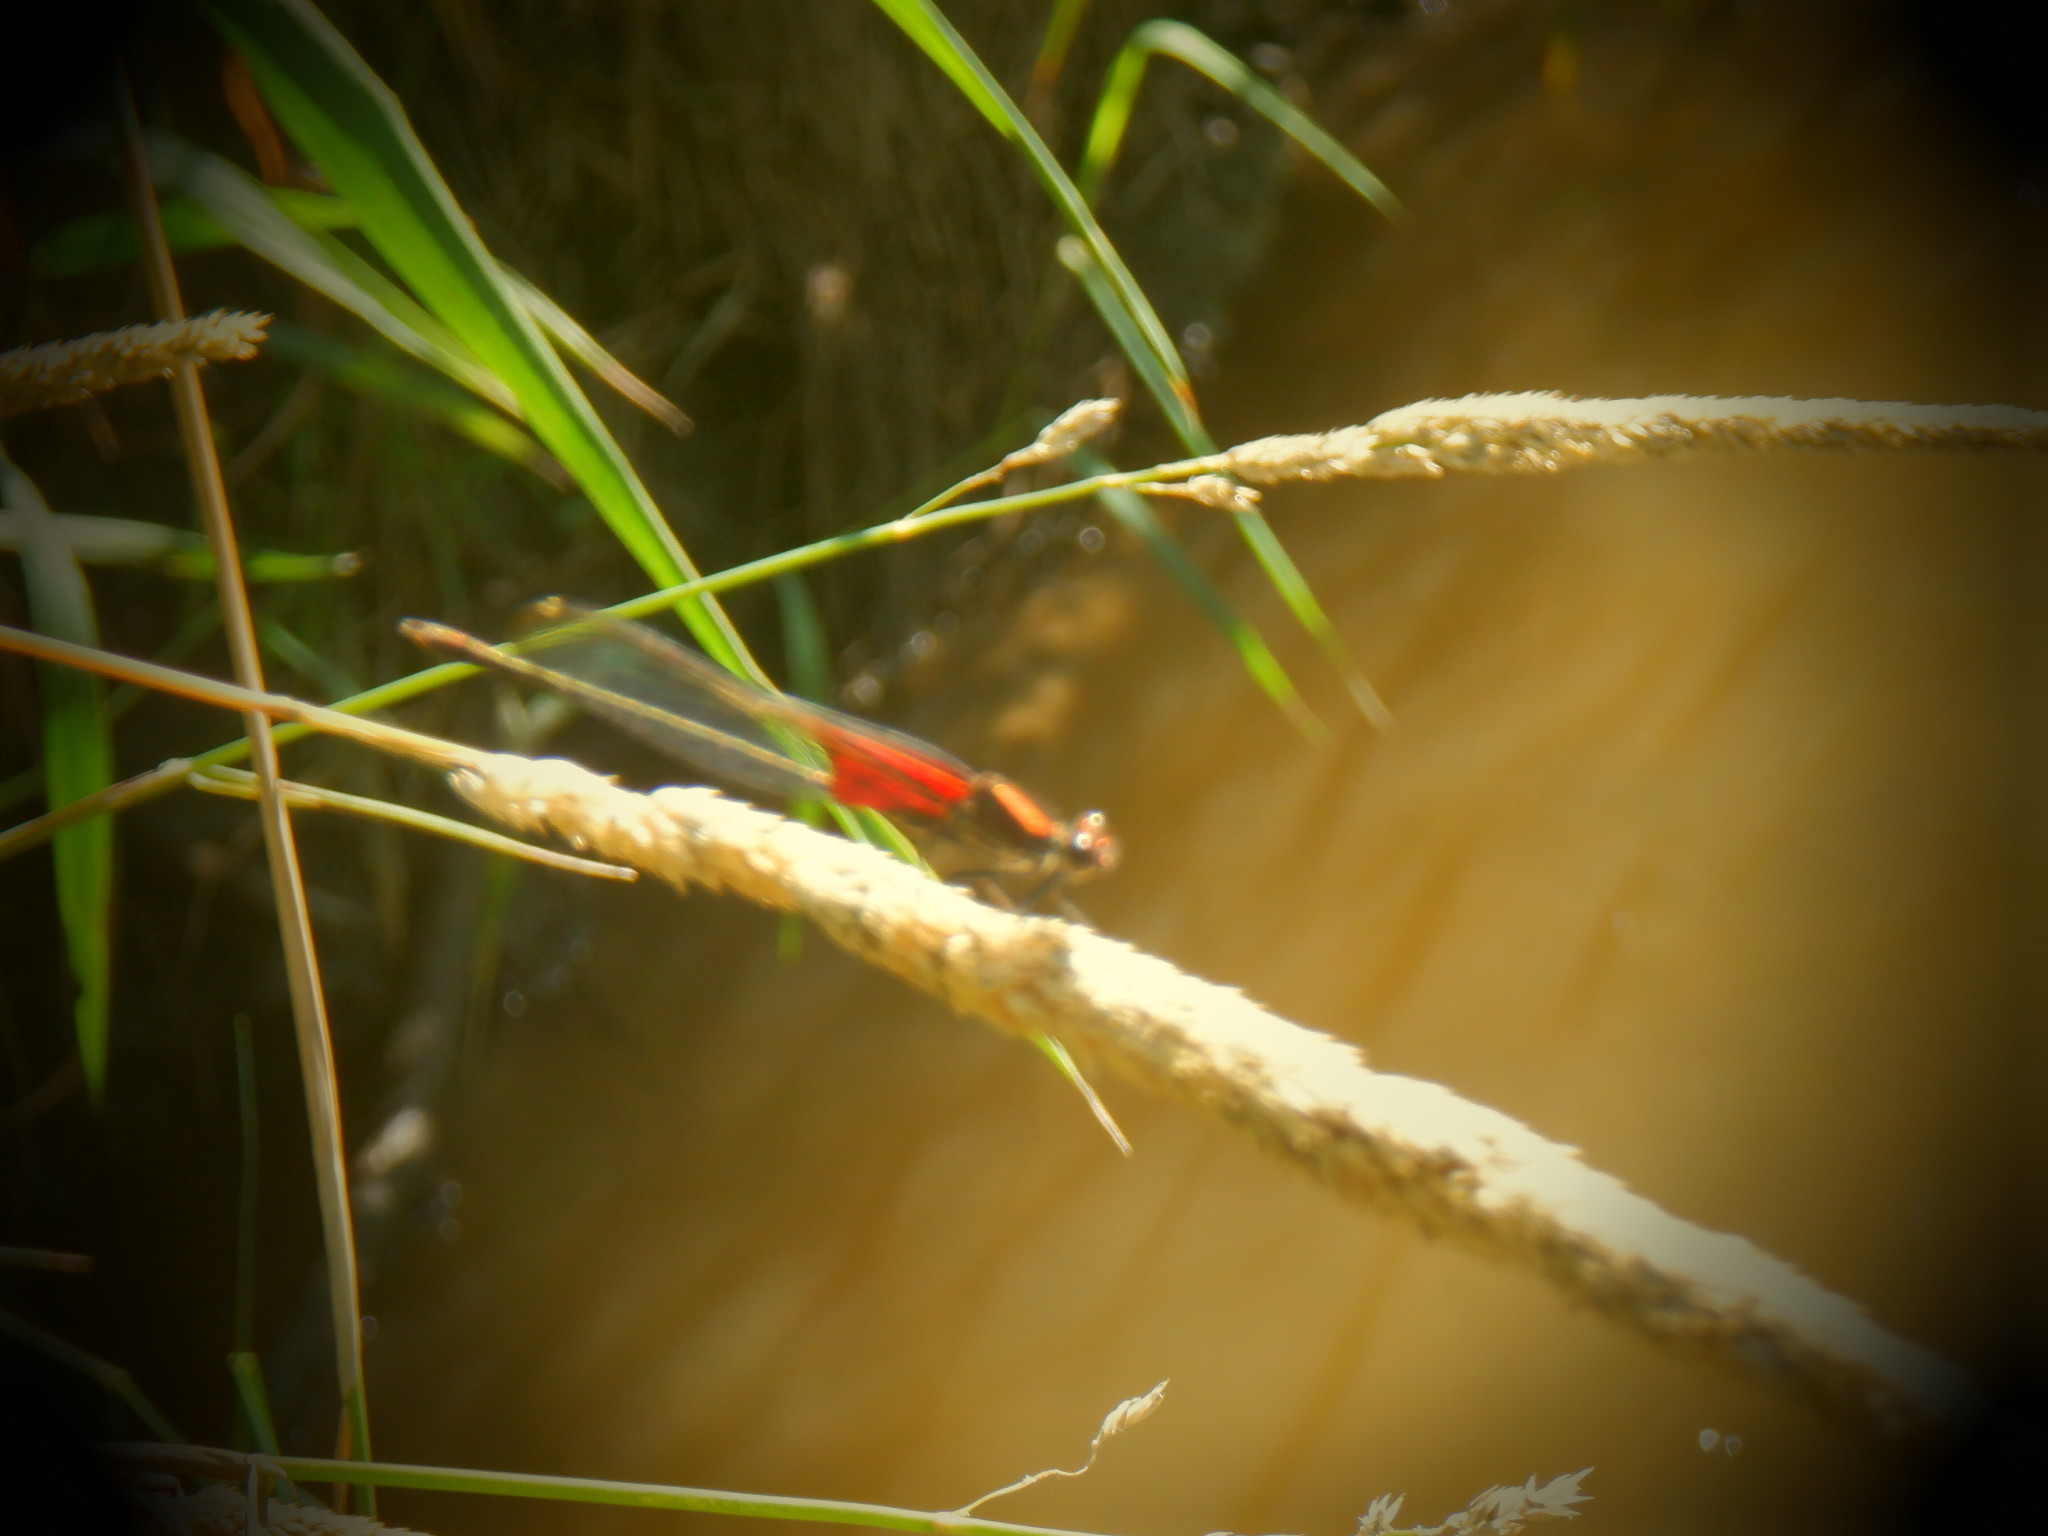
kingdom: Animalia
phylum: Arthropoda
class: Insecta
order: Odonata
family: Calopterygidae
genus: Hetaerina
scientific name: Hetaerina americana
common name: American rubyspot
